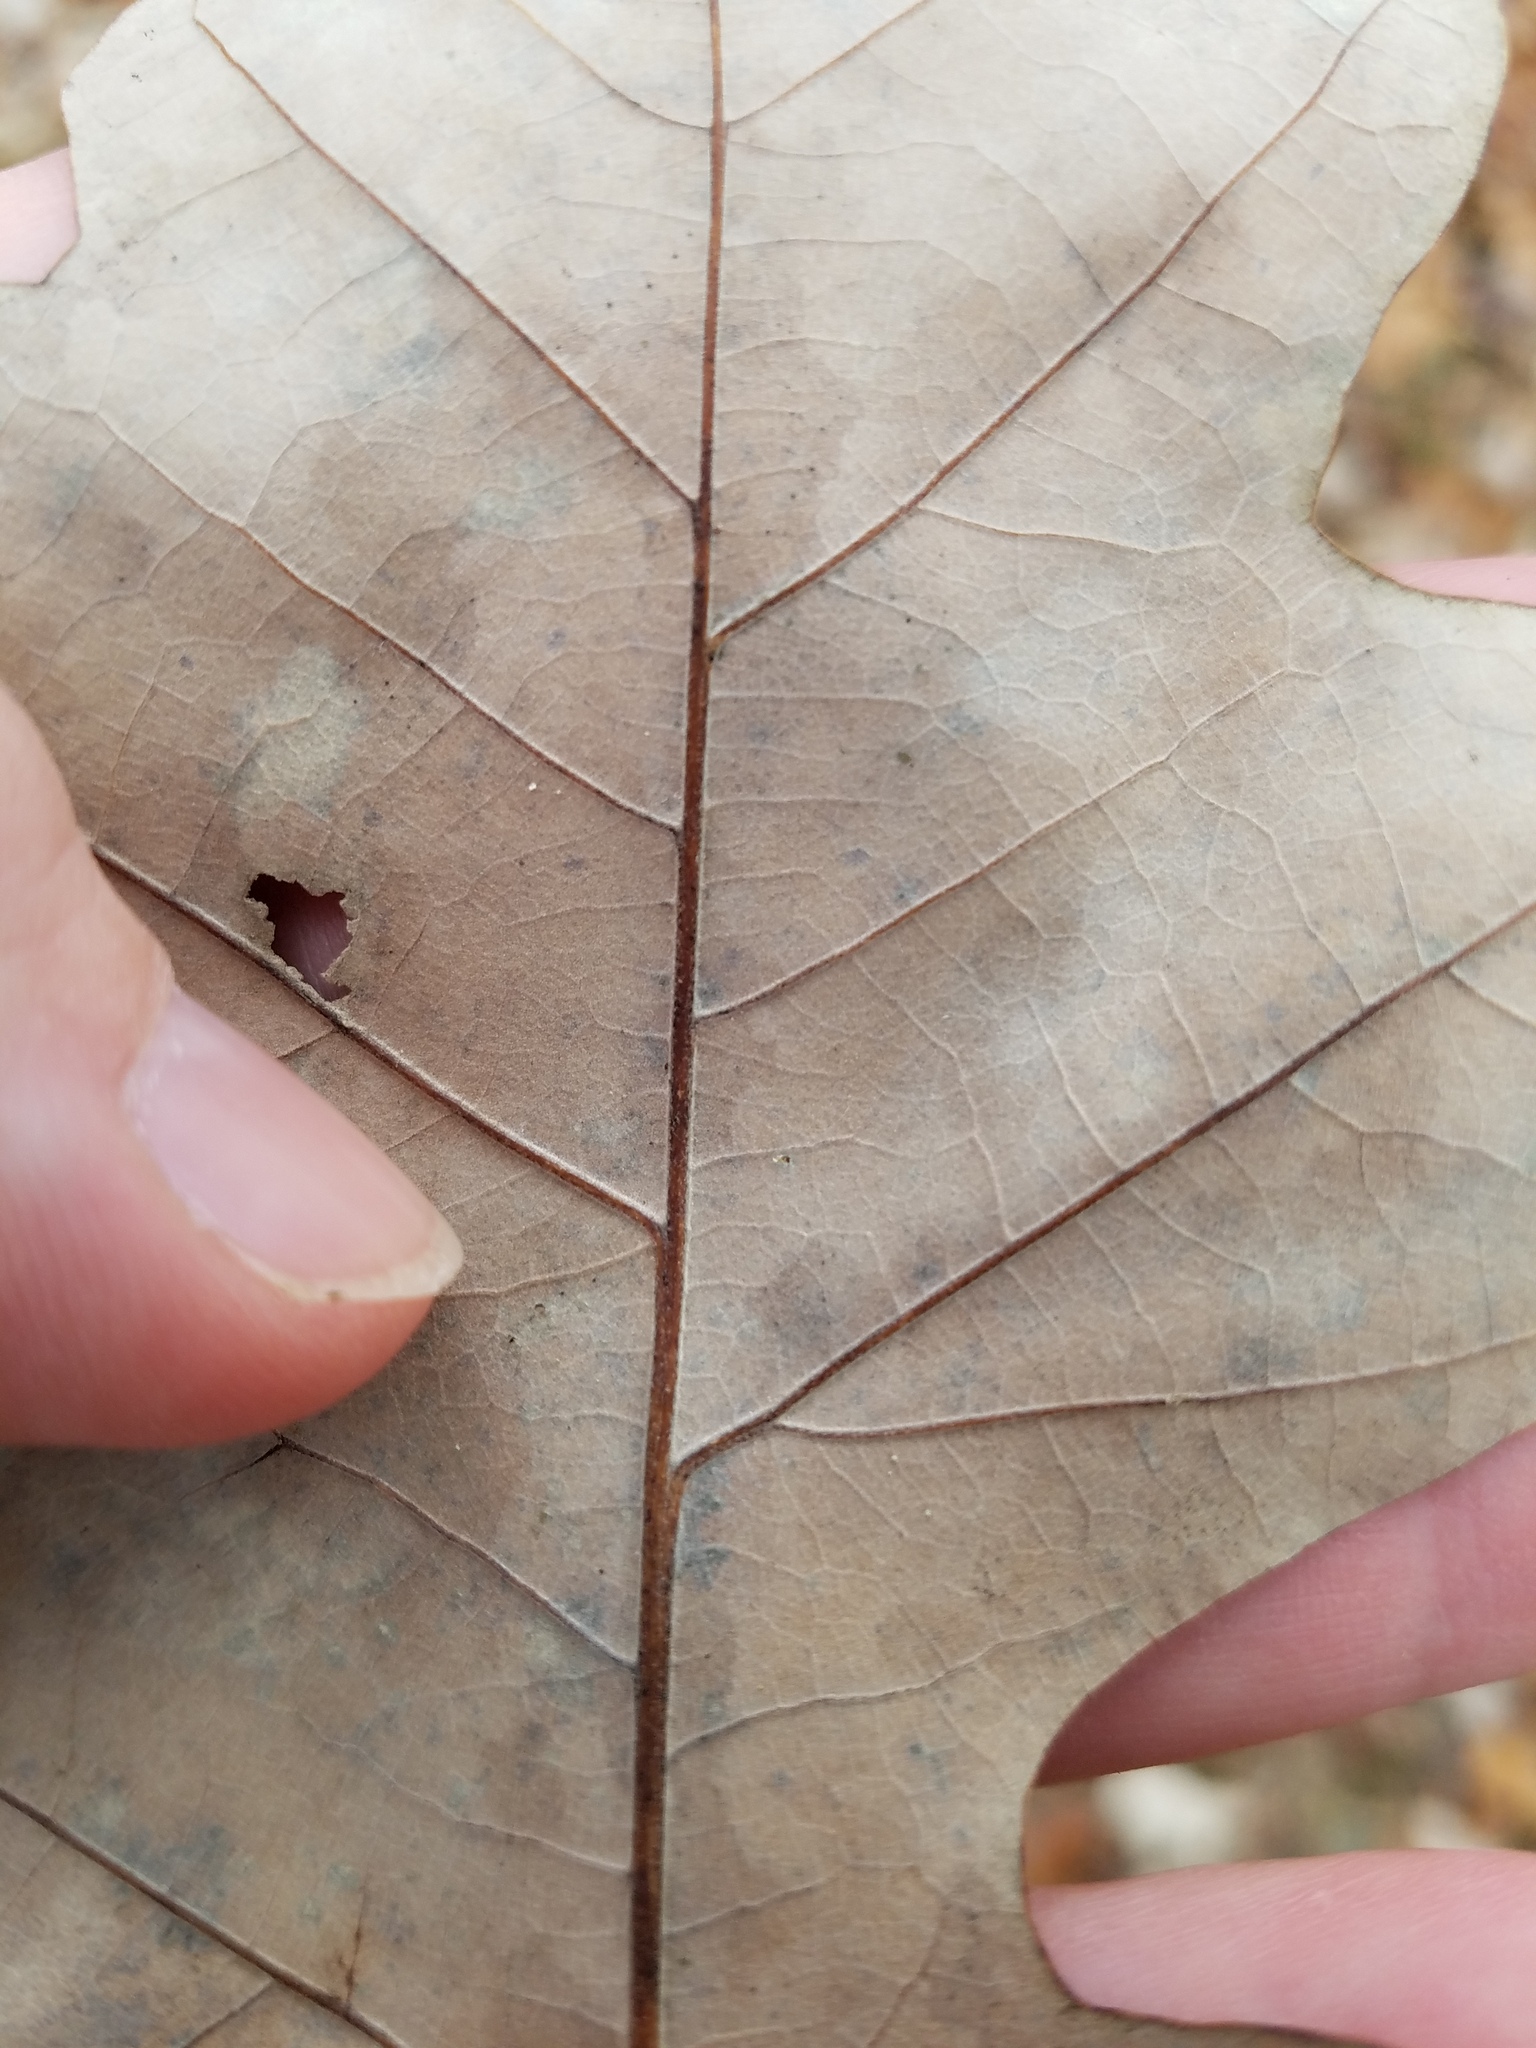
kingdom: Plantae
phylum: Tracheophyta
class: Magnoliopsida
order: Fagales
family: Fagaceae
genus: Quercus
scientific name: Quercus lyrata
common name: Overcup oak
